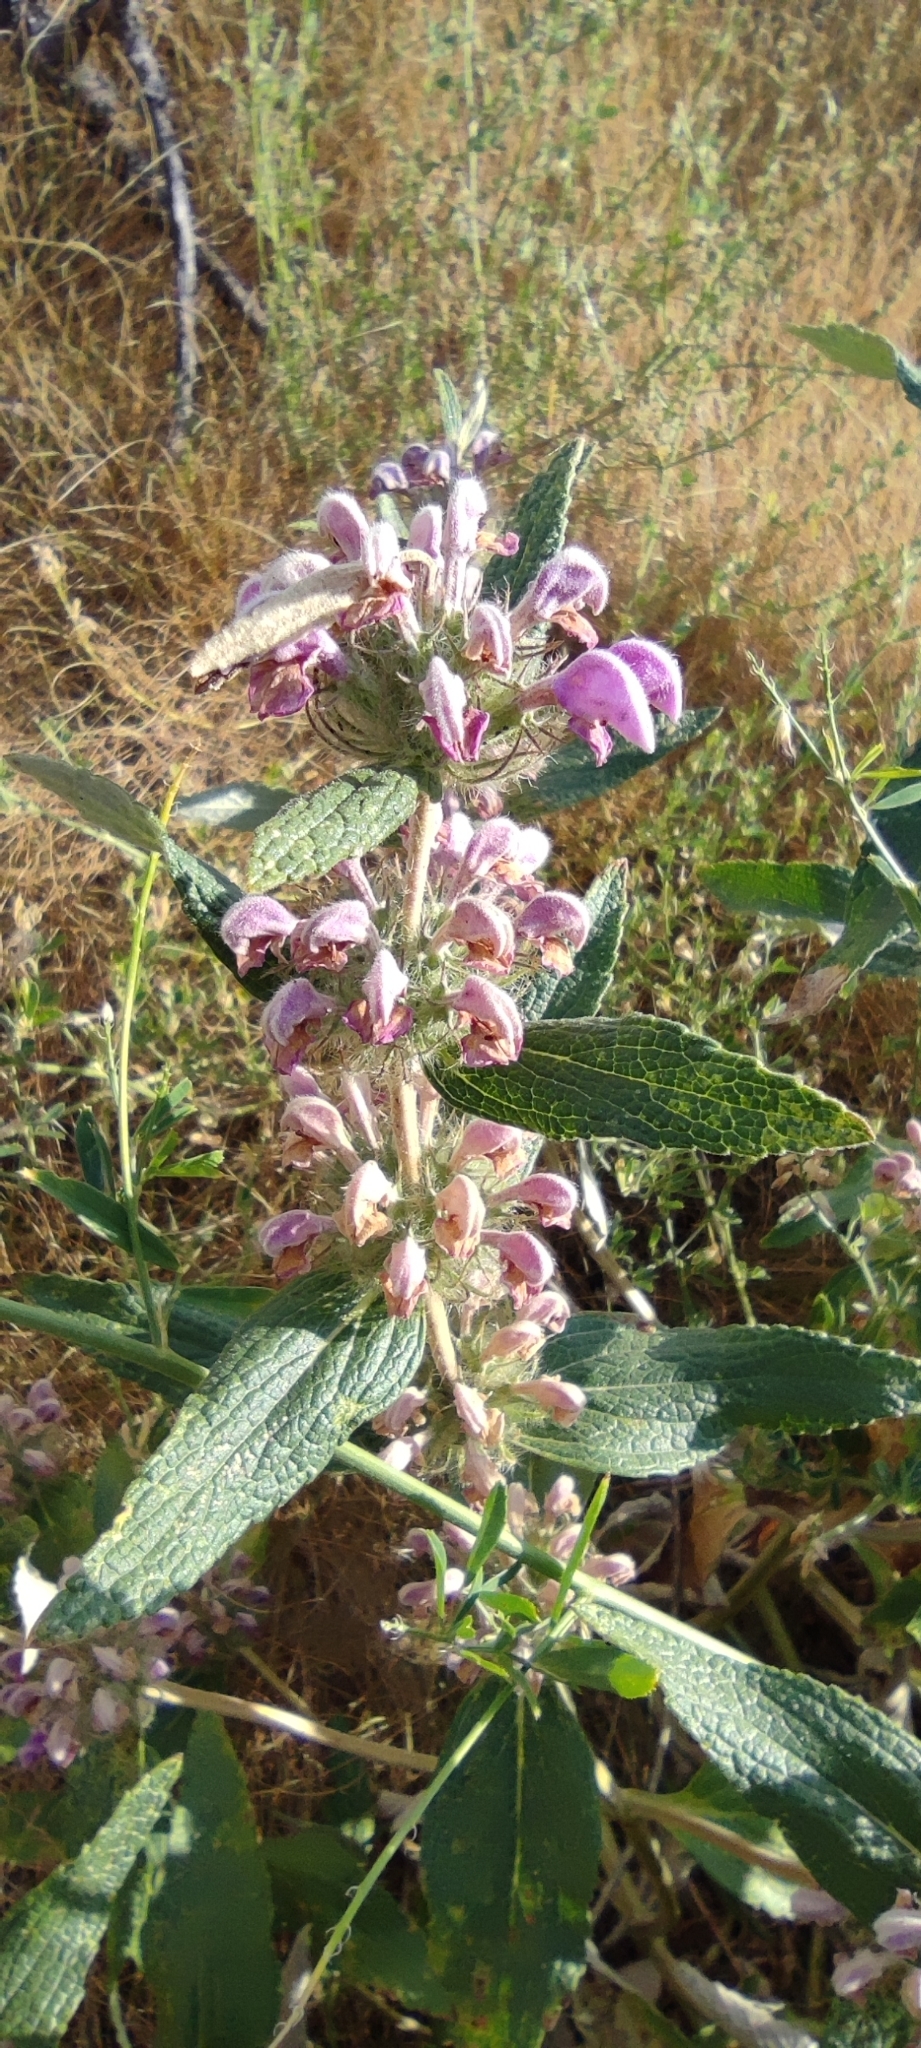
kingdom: Plantae
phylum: Tracheophyta
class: Magnoliopsida
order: Lamiales
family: Lamiaceae
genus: Phlomis
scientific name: Phlomis herba-venti
